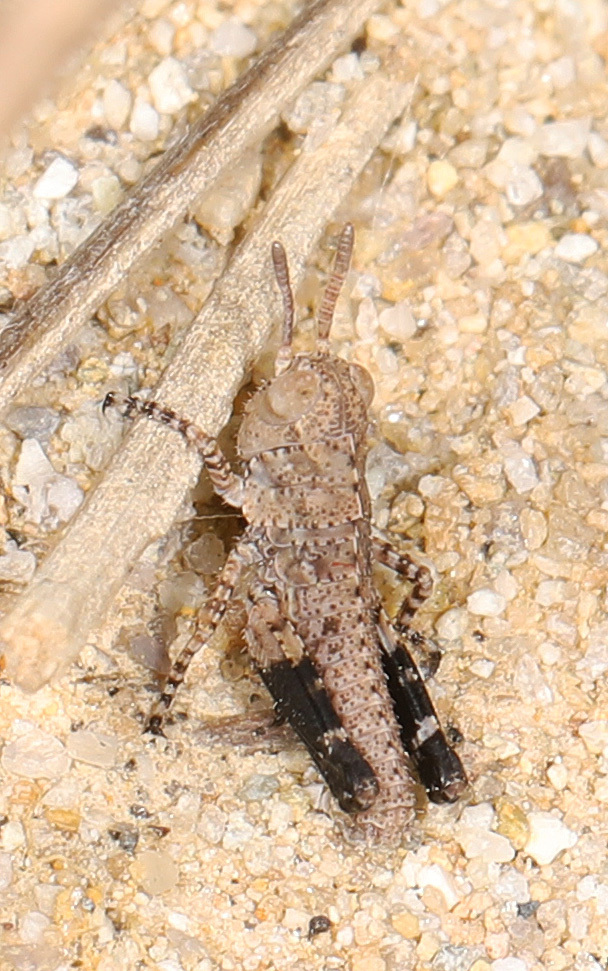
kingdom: Animalia
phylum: Arthropoda
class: Insecta
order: Orthoptera
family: Acrididae
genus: Dissosteira
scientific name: Dissosteira carolina
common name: Carolina grasshopper
